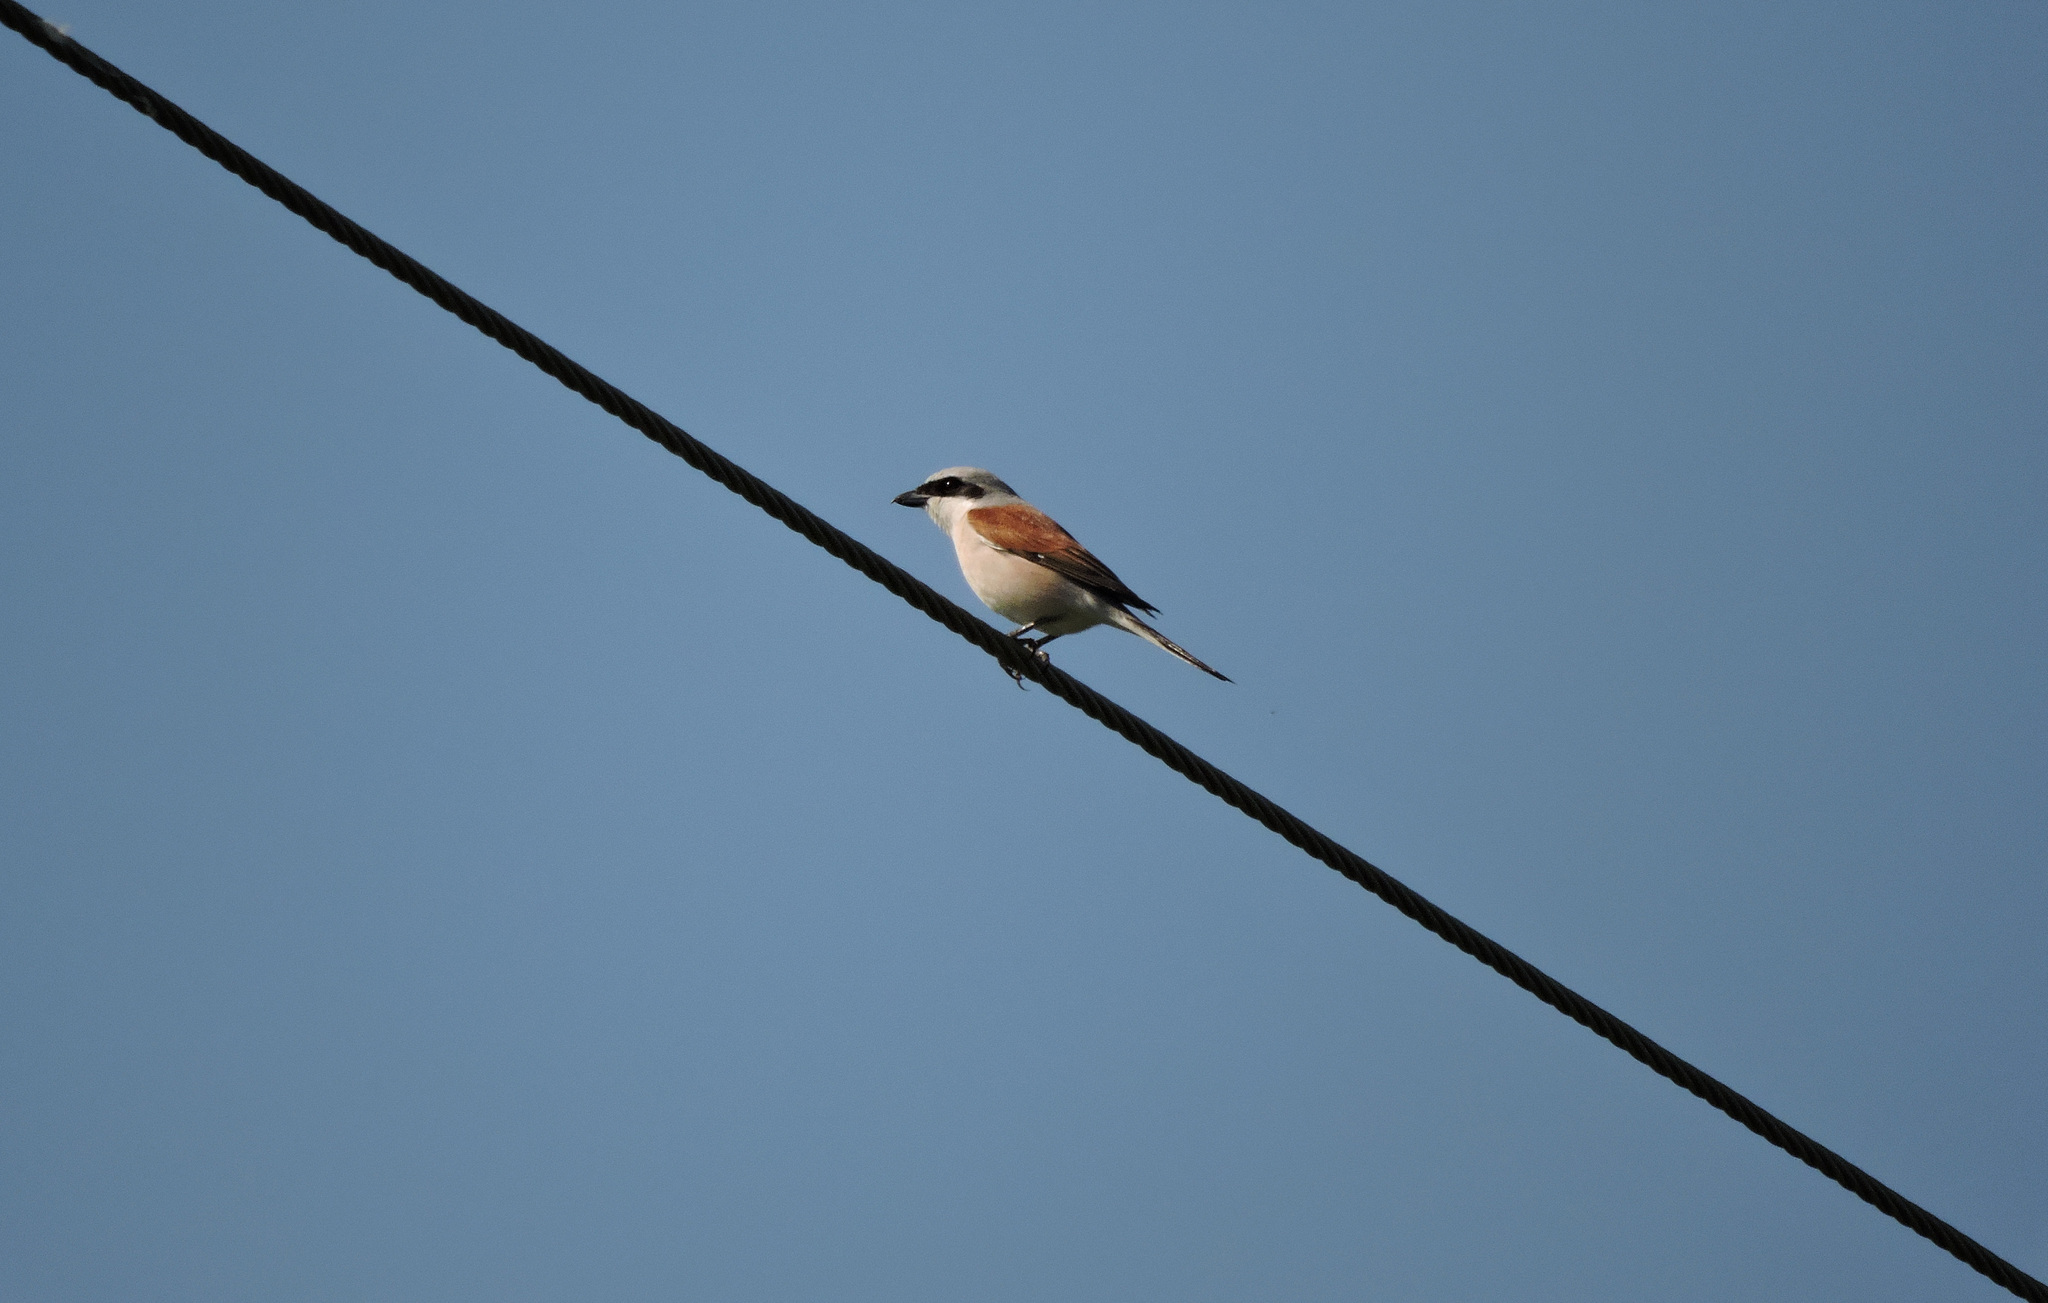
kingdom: Animalia
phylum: Chordata
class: Aves
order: Passeriformes
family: Laniidae
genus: Lanius
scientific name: Lanius collurio
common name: Red-backed shrike
